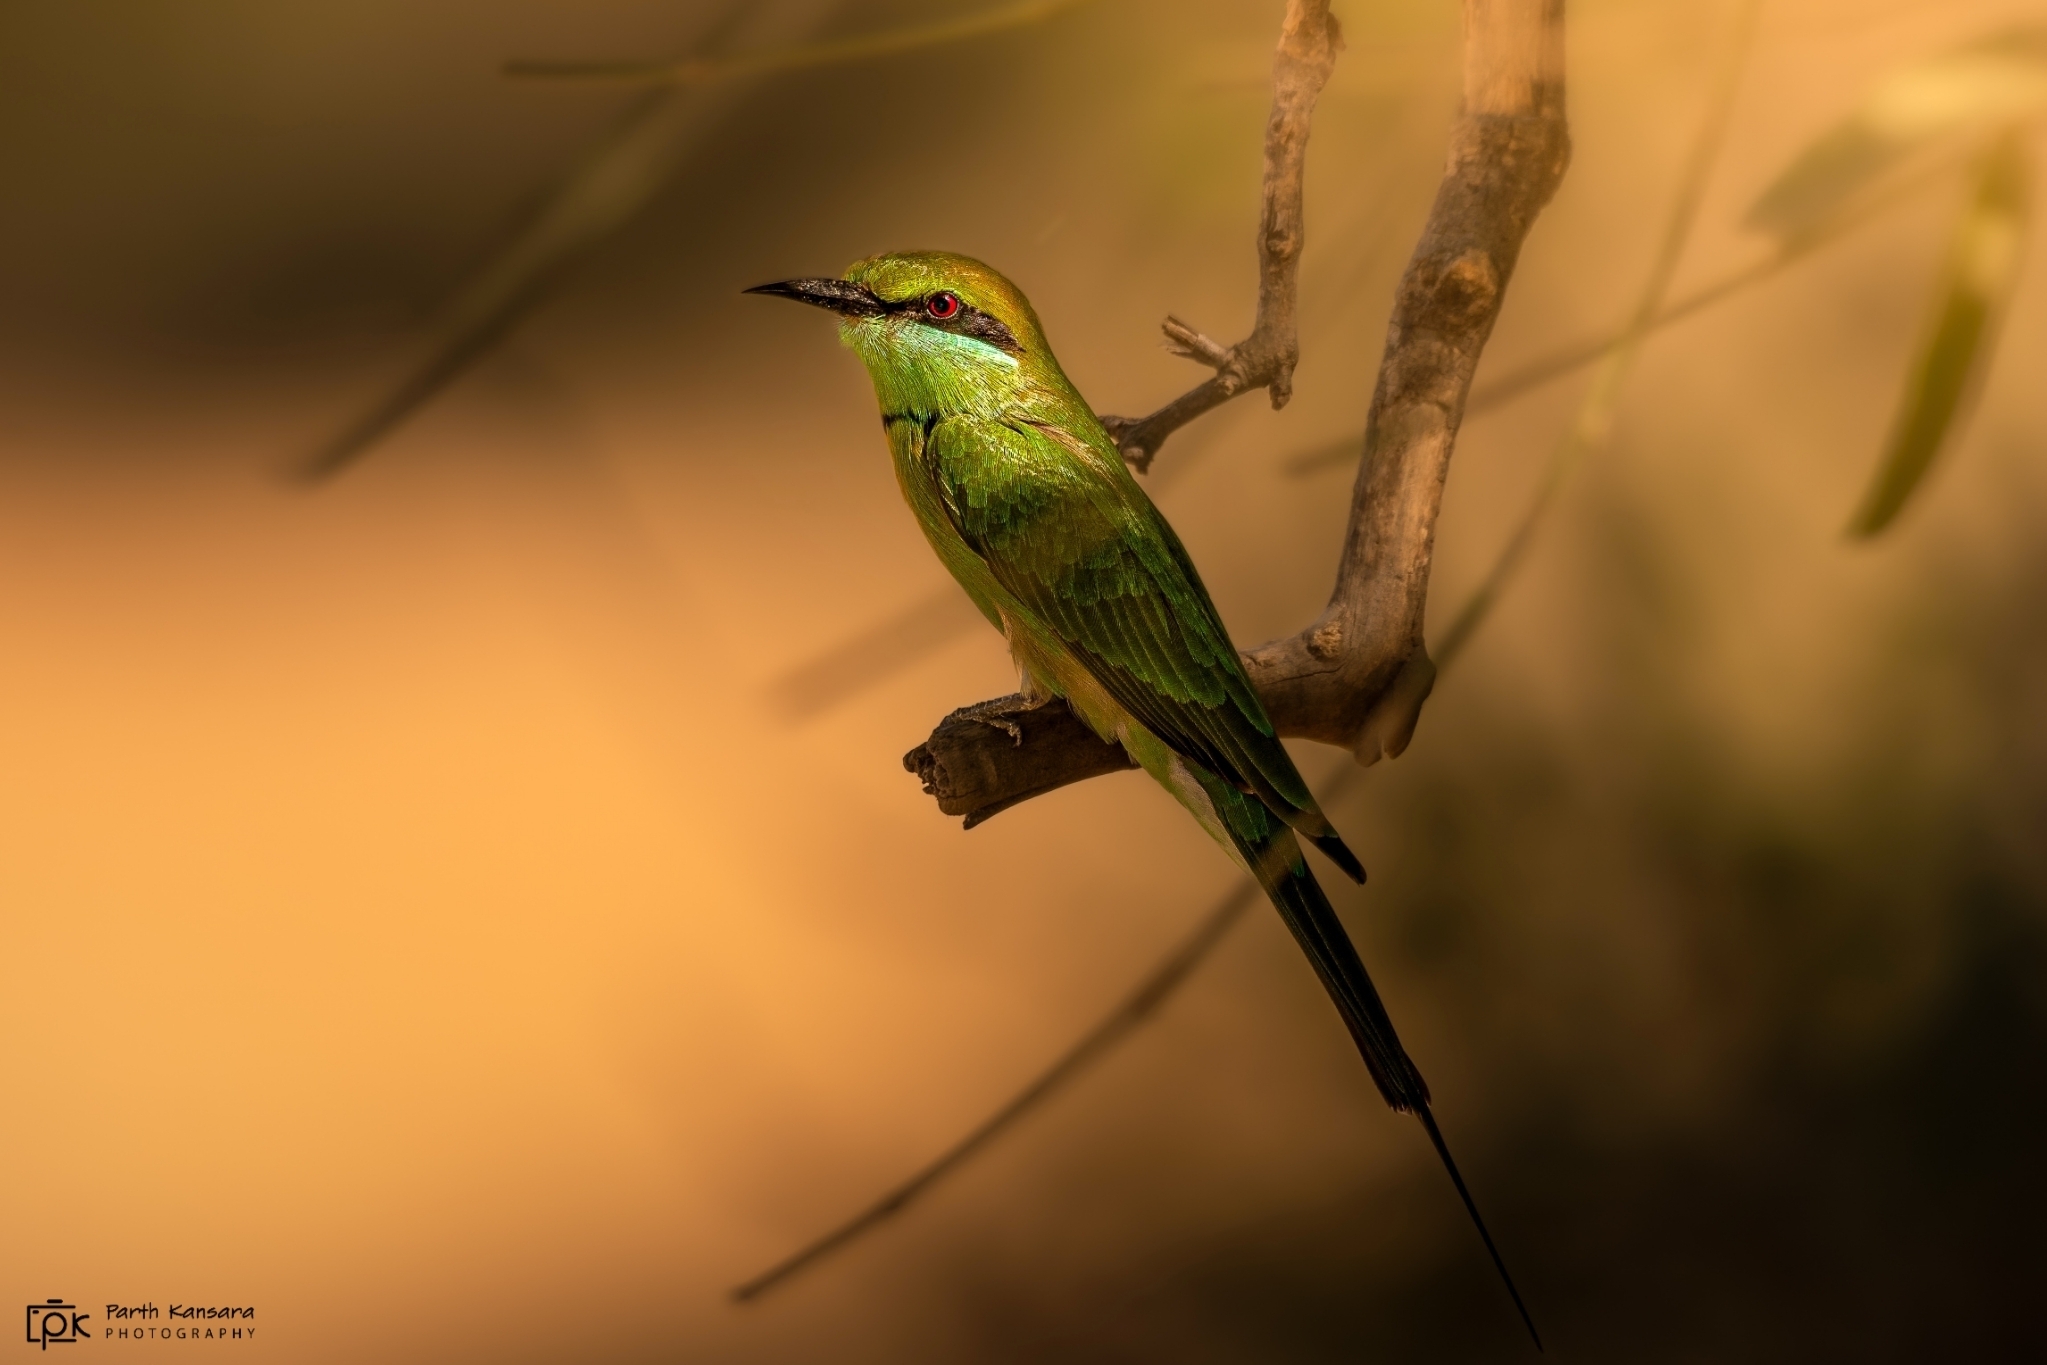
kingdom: Animalia
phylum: Chordata
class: Aves
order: Coraciiformes
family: Meropidae
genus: Merops
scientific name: Merops orientalis
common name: Green bee-eater
